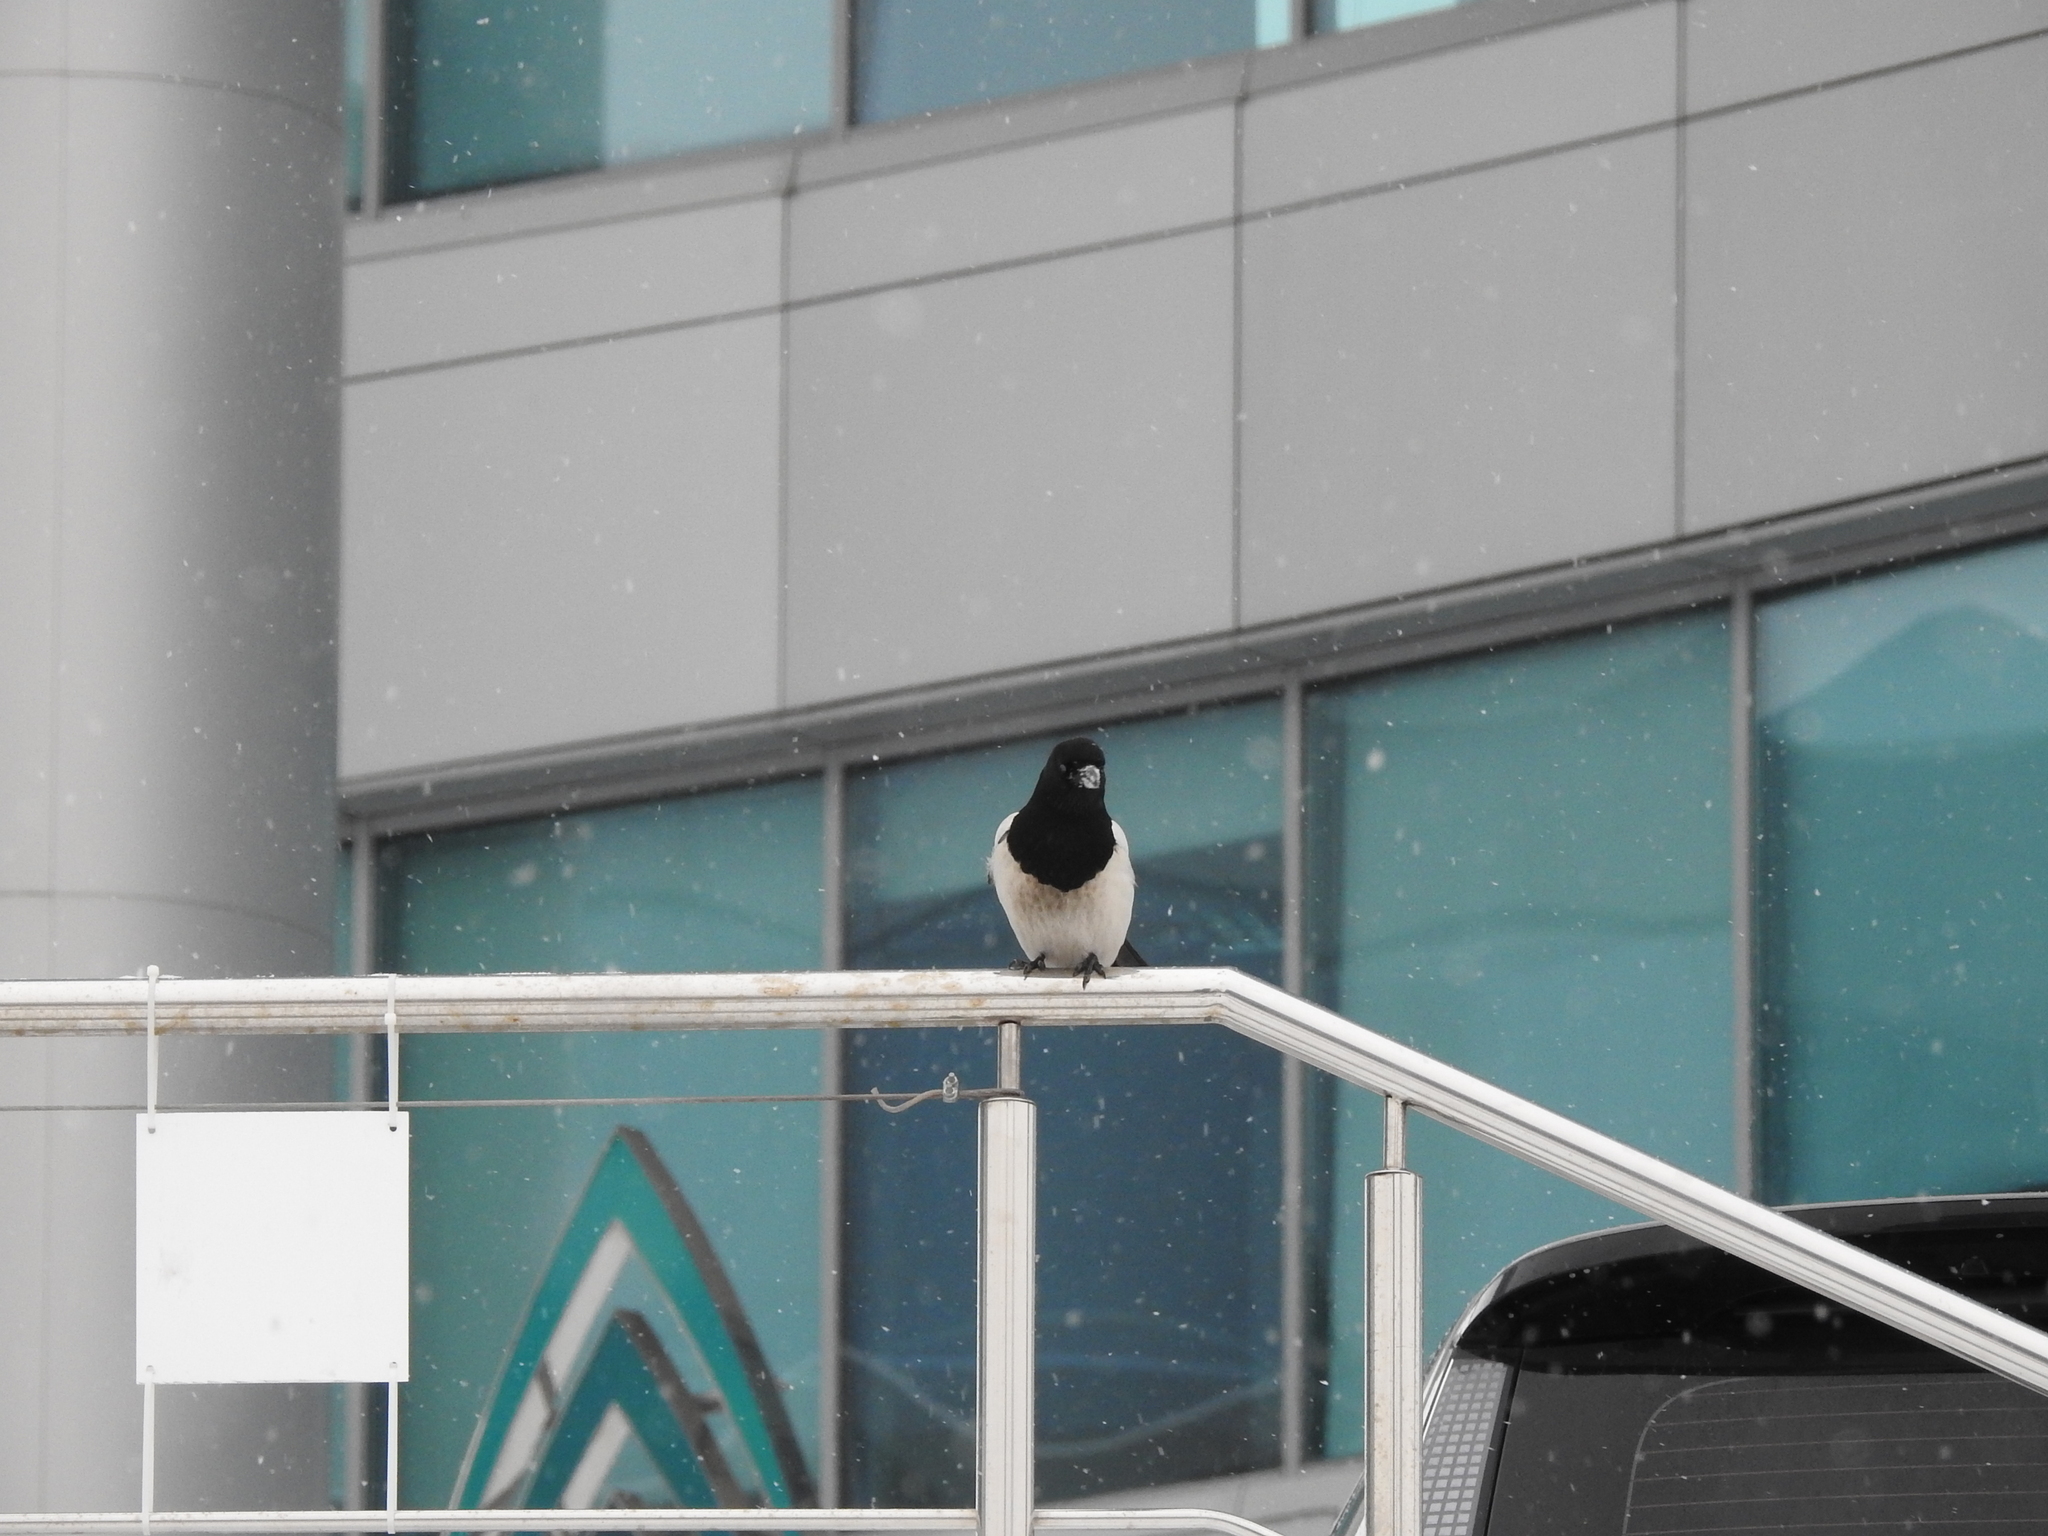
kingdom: Animalia
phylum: Chordata
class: Aves
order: Passeriformes
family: Corvidae
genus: Pica
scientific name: Pica pica
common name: Eurasian magpie
